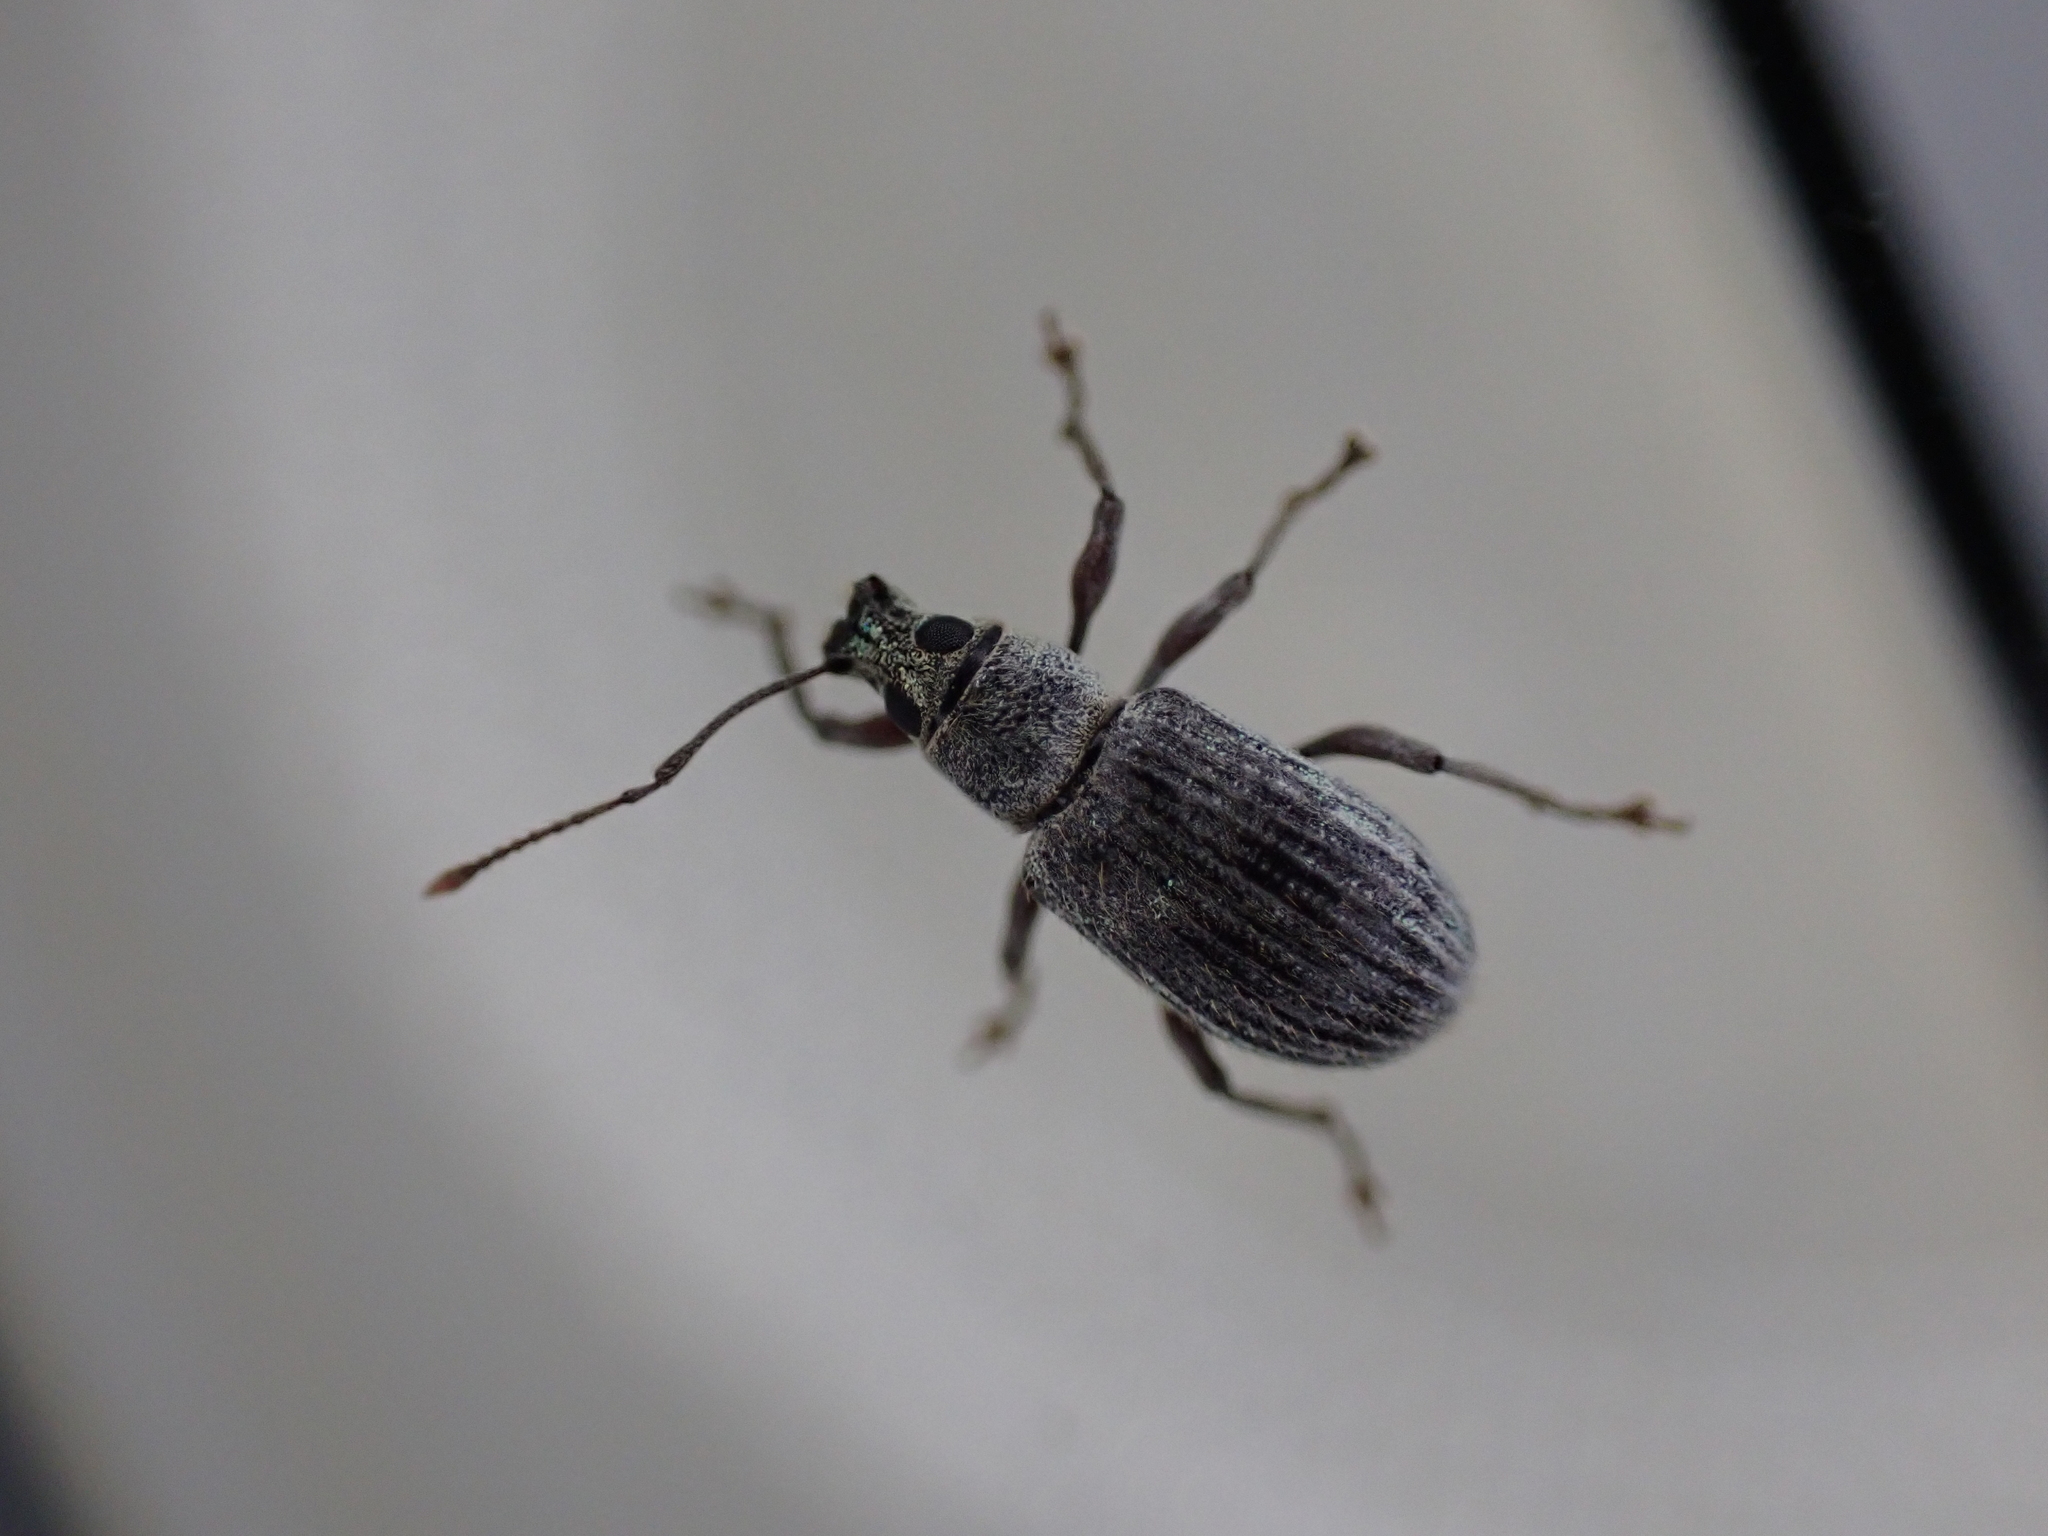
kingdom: Animalia
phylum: Arthropoda
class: Insecta
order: Coleoptera
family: Curculionidae
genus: Cyrtepistomus
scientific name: Cyrtepistomus castaneus
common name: Weevil
